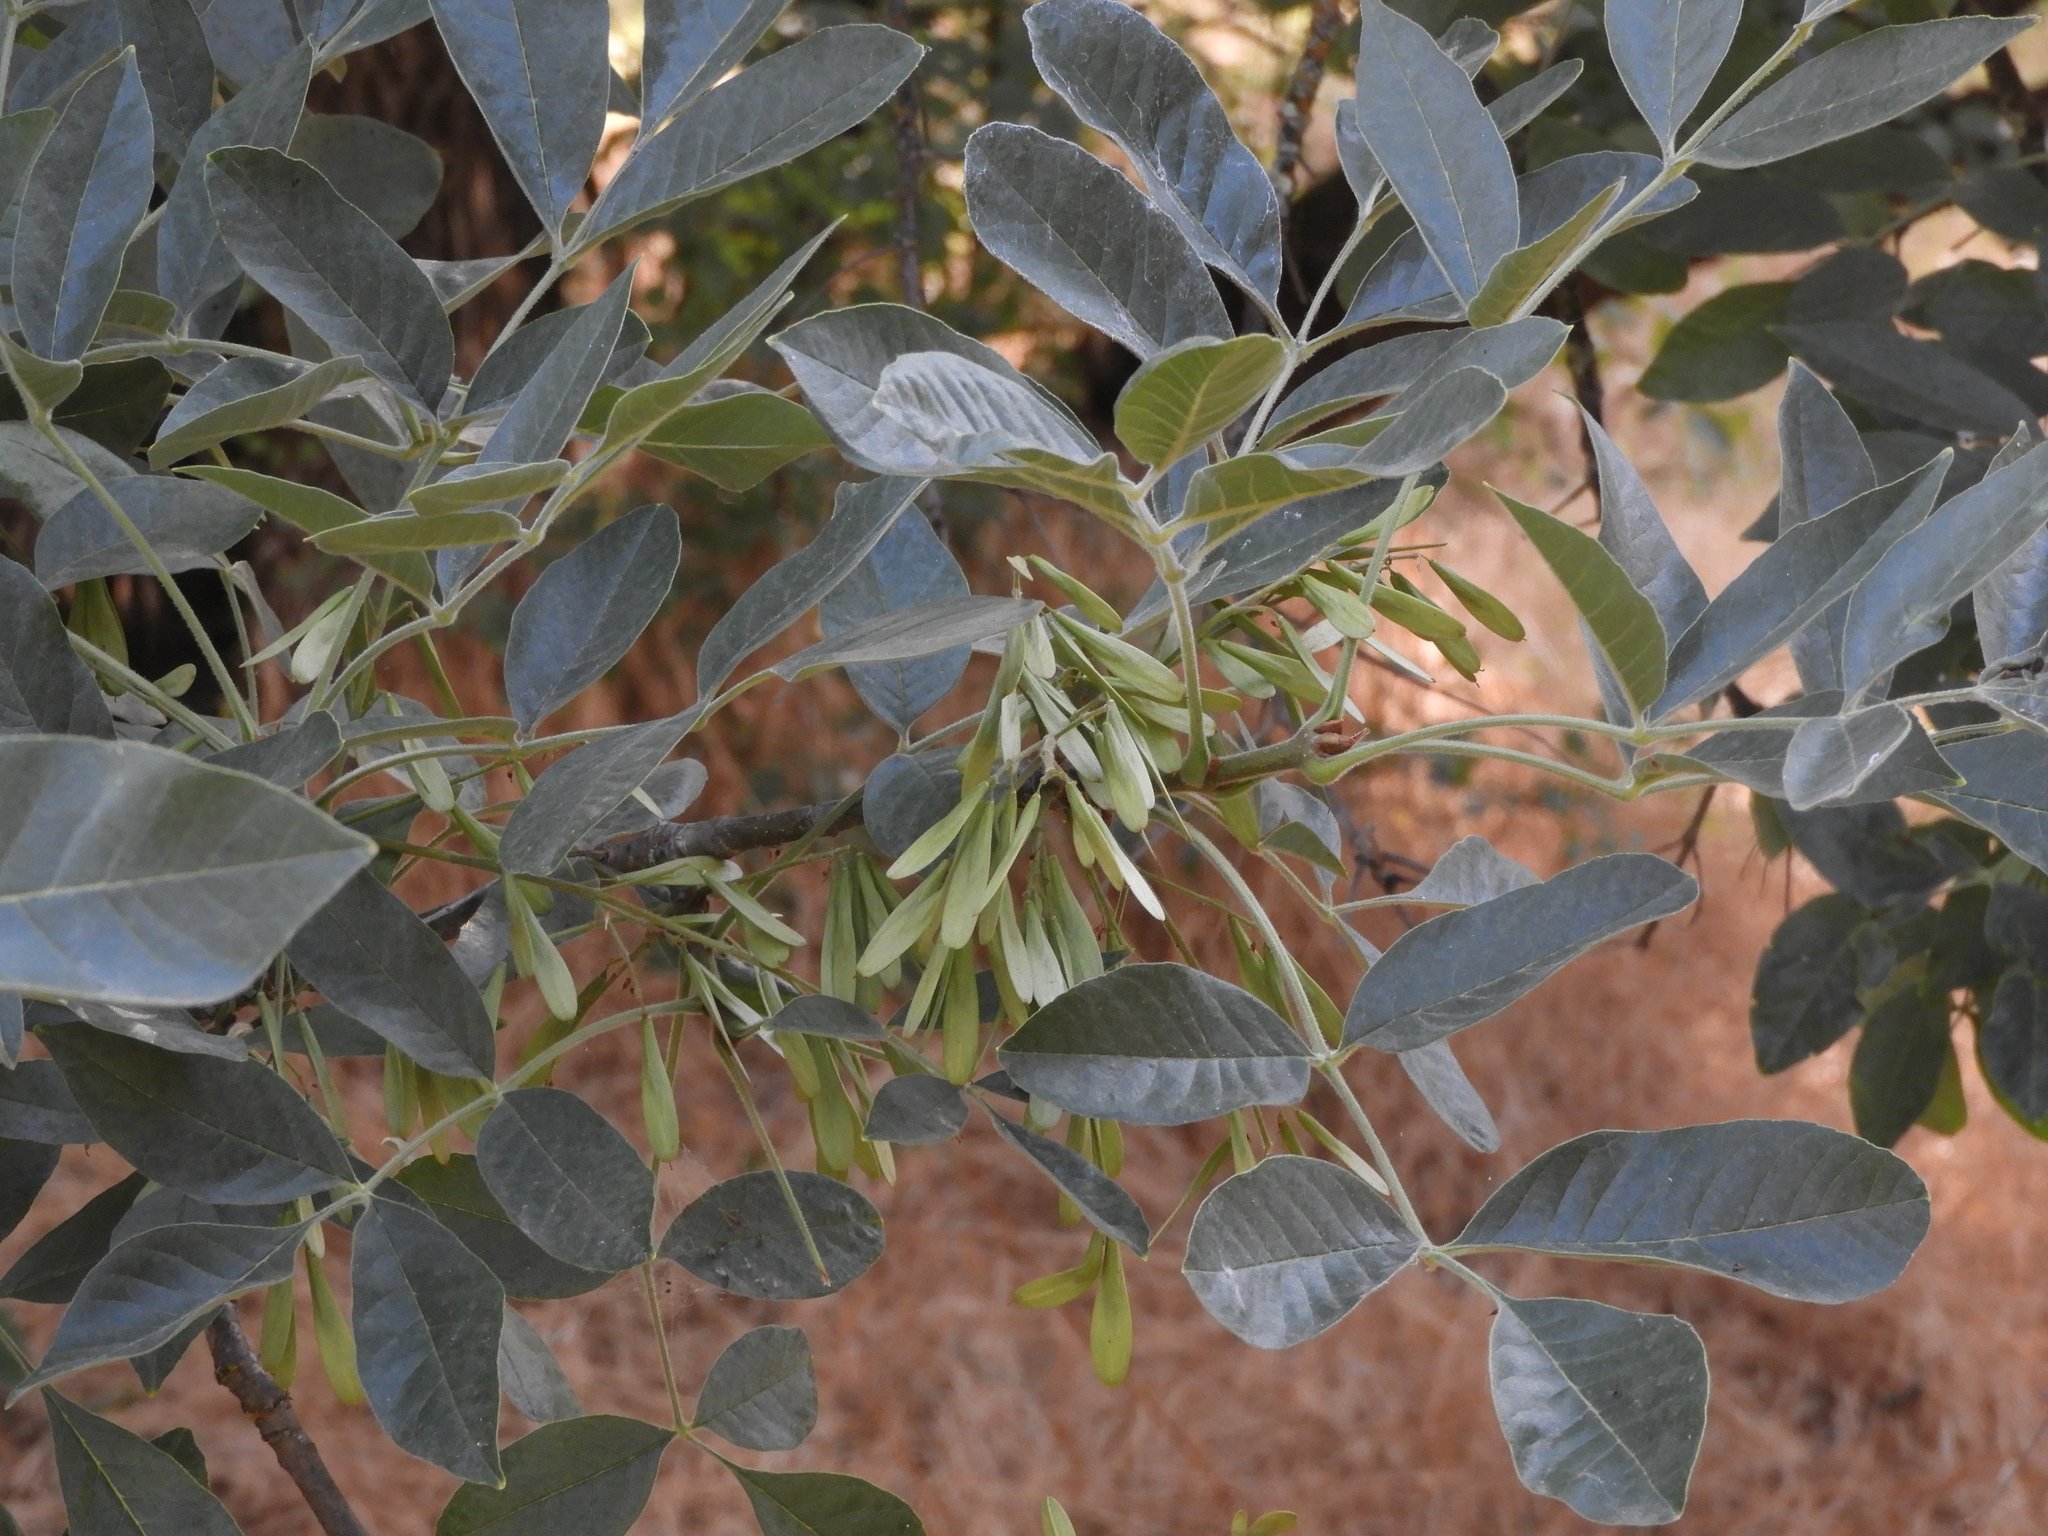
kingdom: Plantae
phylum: Tracheophyta
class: Magnoliopsida
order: Lamiales
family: Oleaceae
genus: Fraxinus
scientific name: Fraxinus latifolia
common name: Oregon ash
